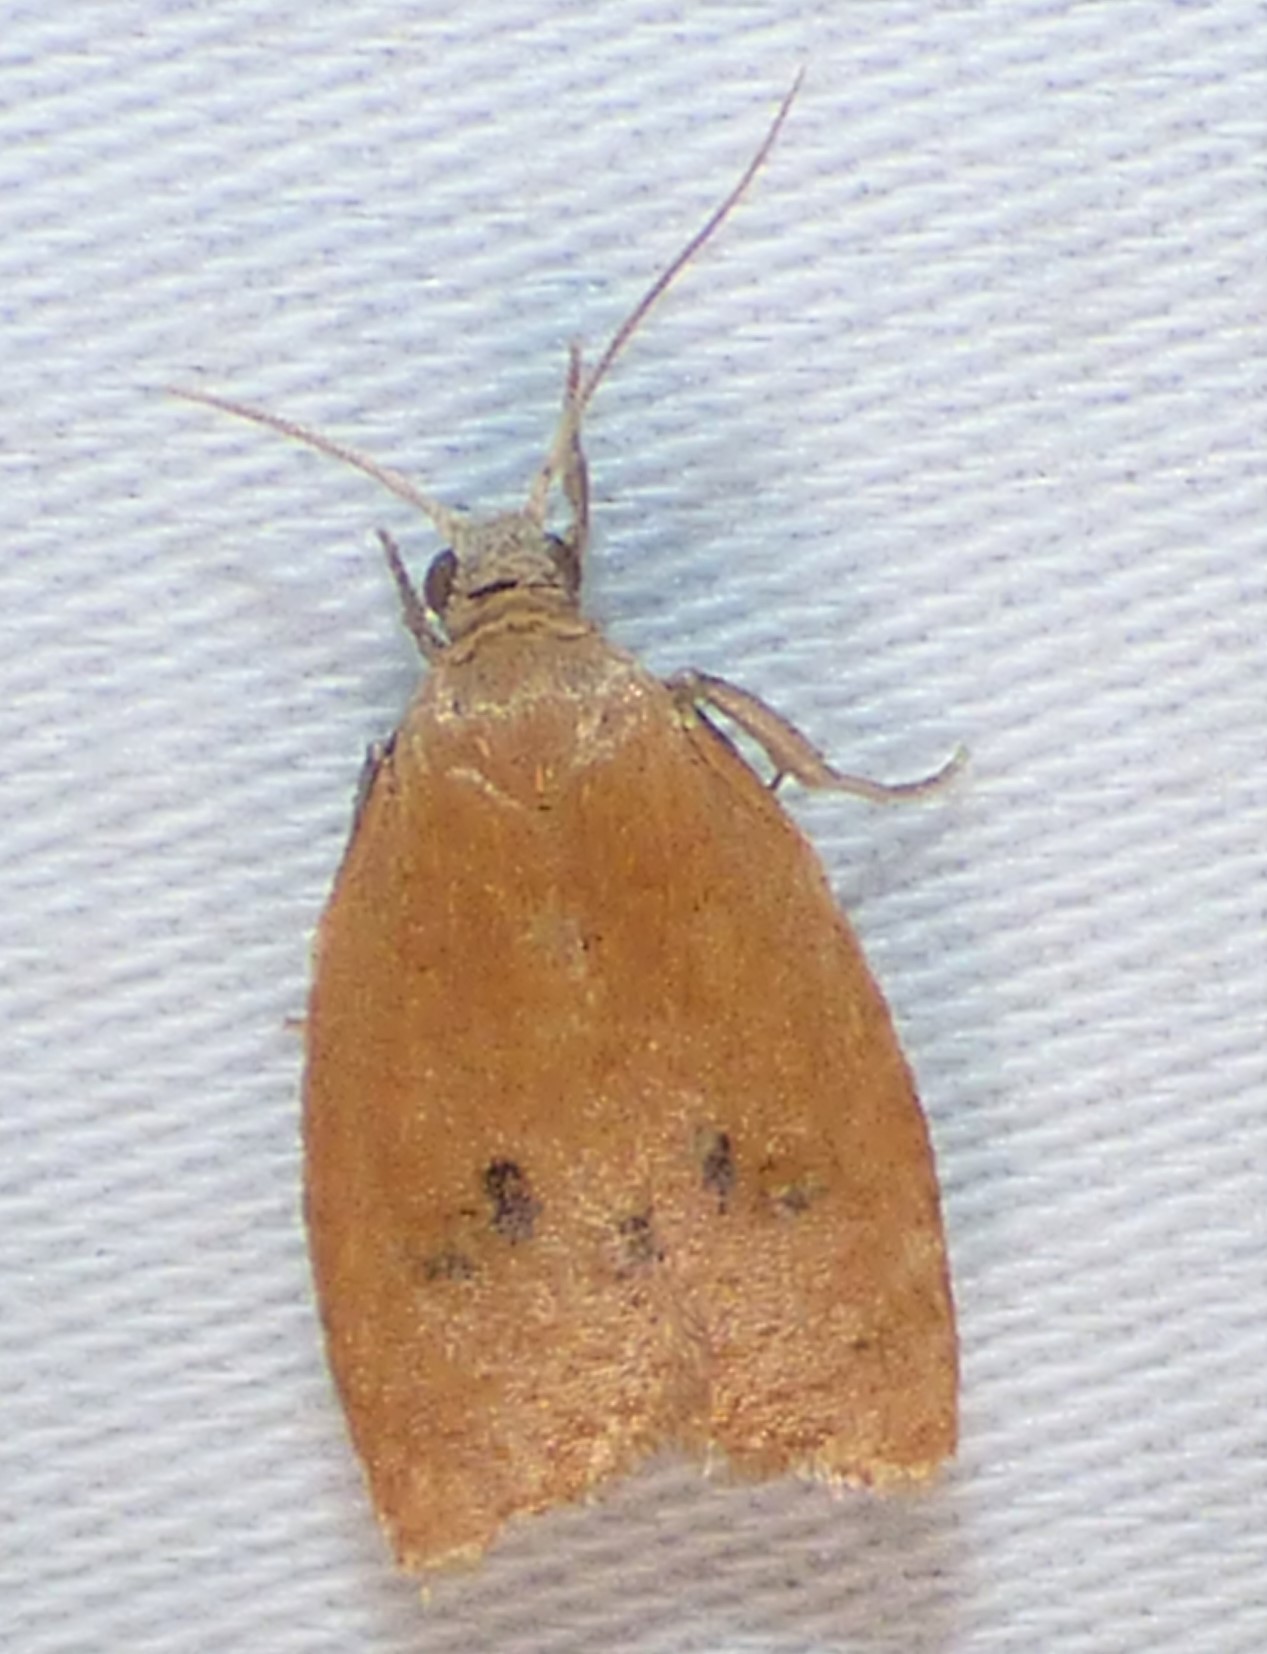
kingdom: Animalia
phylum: Arthropoda
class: Insecta
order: Lepidoptera
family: Tortricidae
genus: Sparganothoides
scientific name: Sparganothoides lentiginosana
